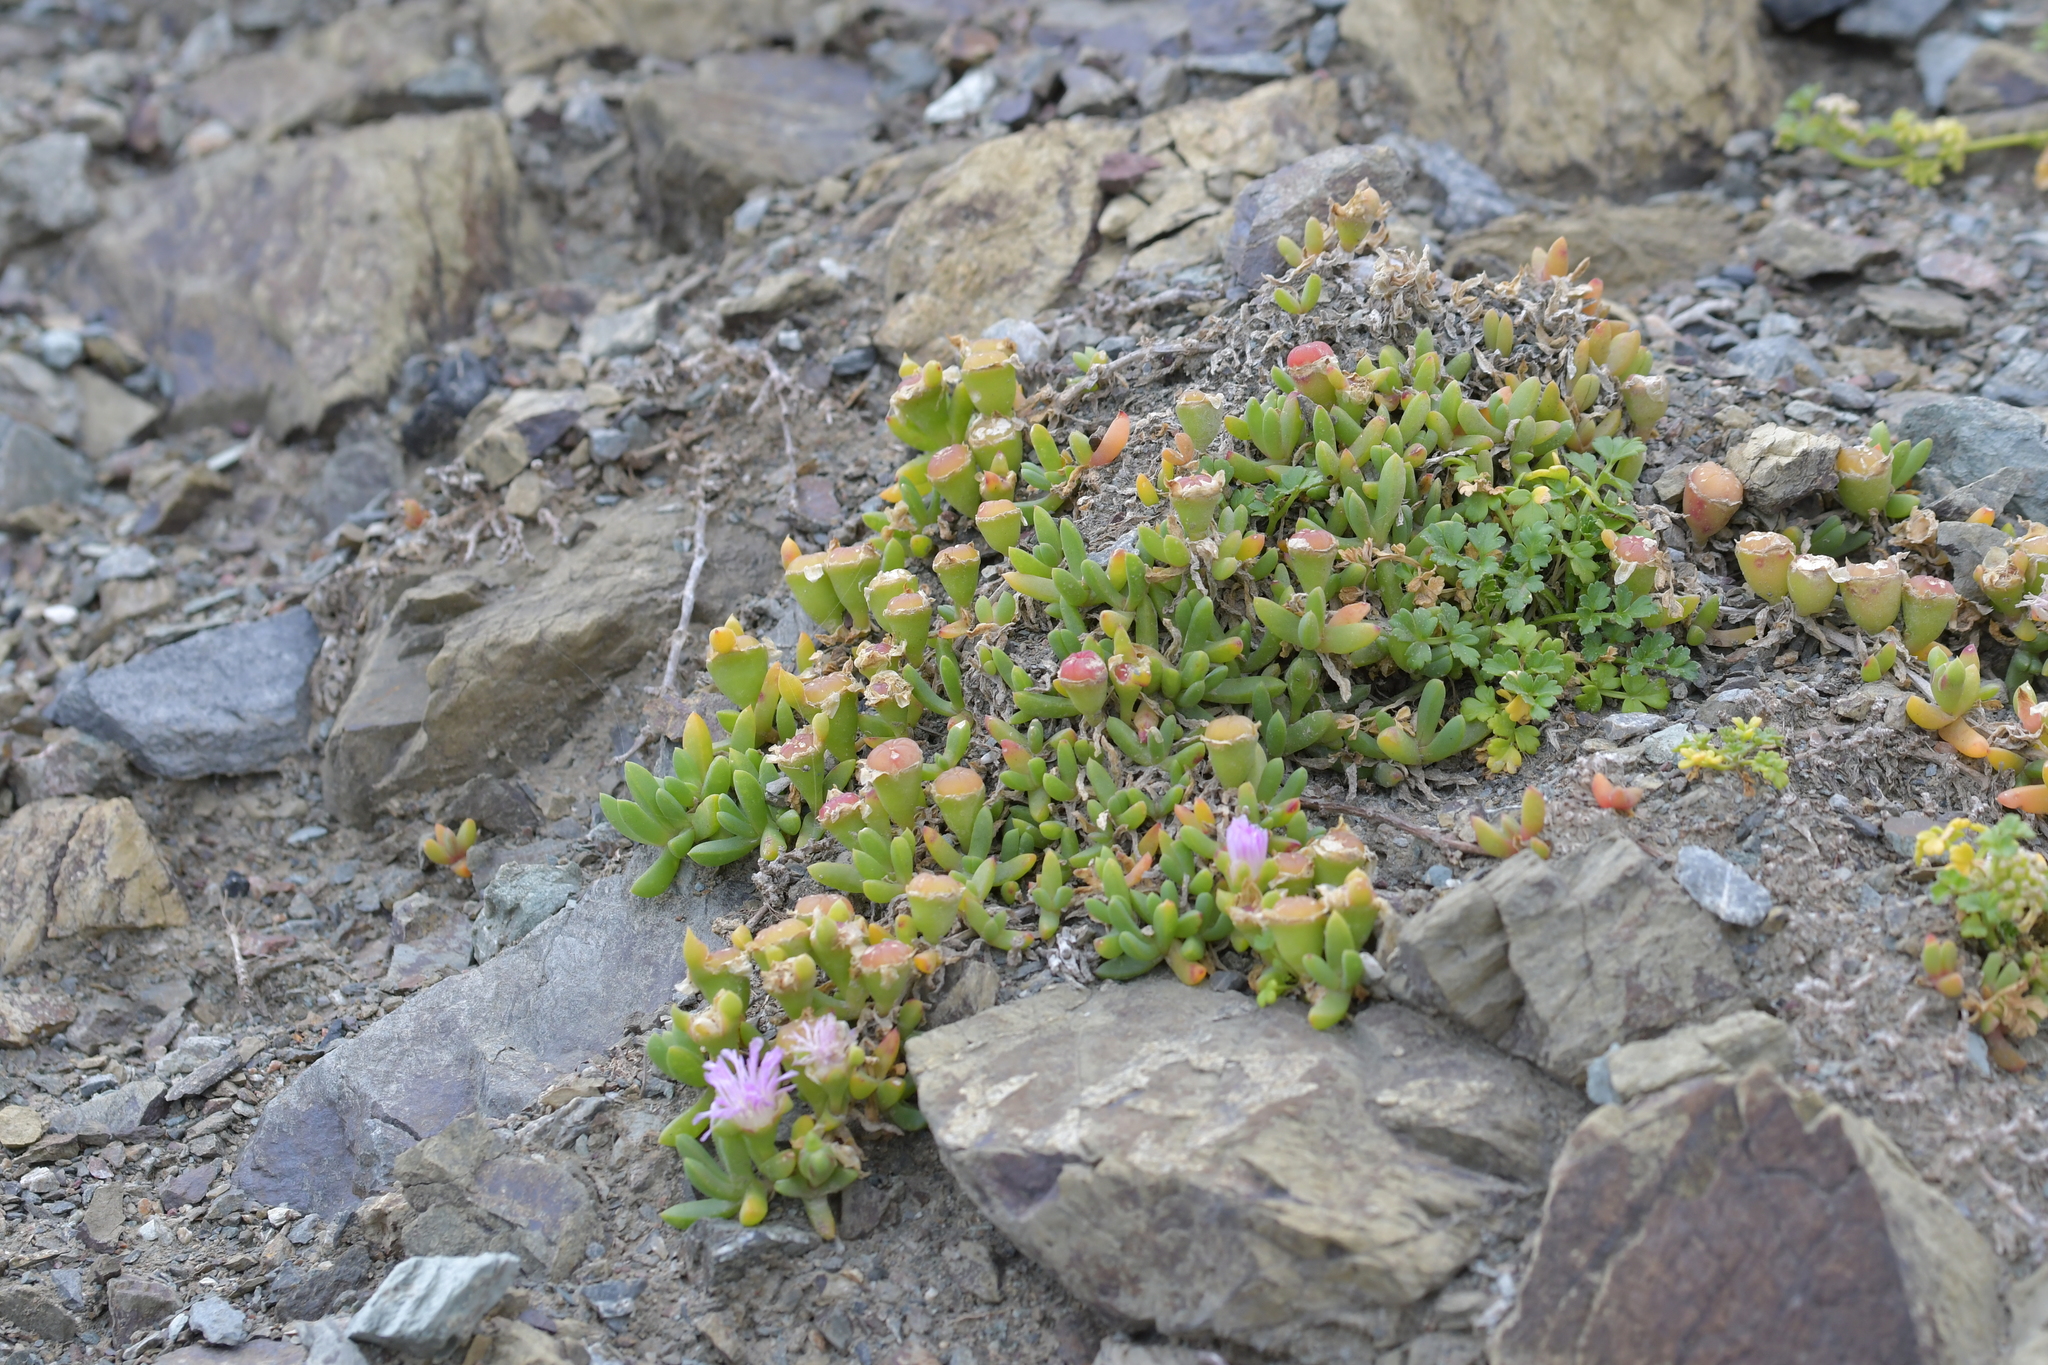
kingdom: Plantae
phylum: Tracheophyta
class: Magnoliopsida
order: Caryophyllales
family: Aizoaceae
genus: Disphyma
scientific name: Disphyma australe
